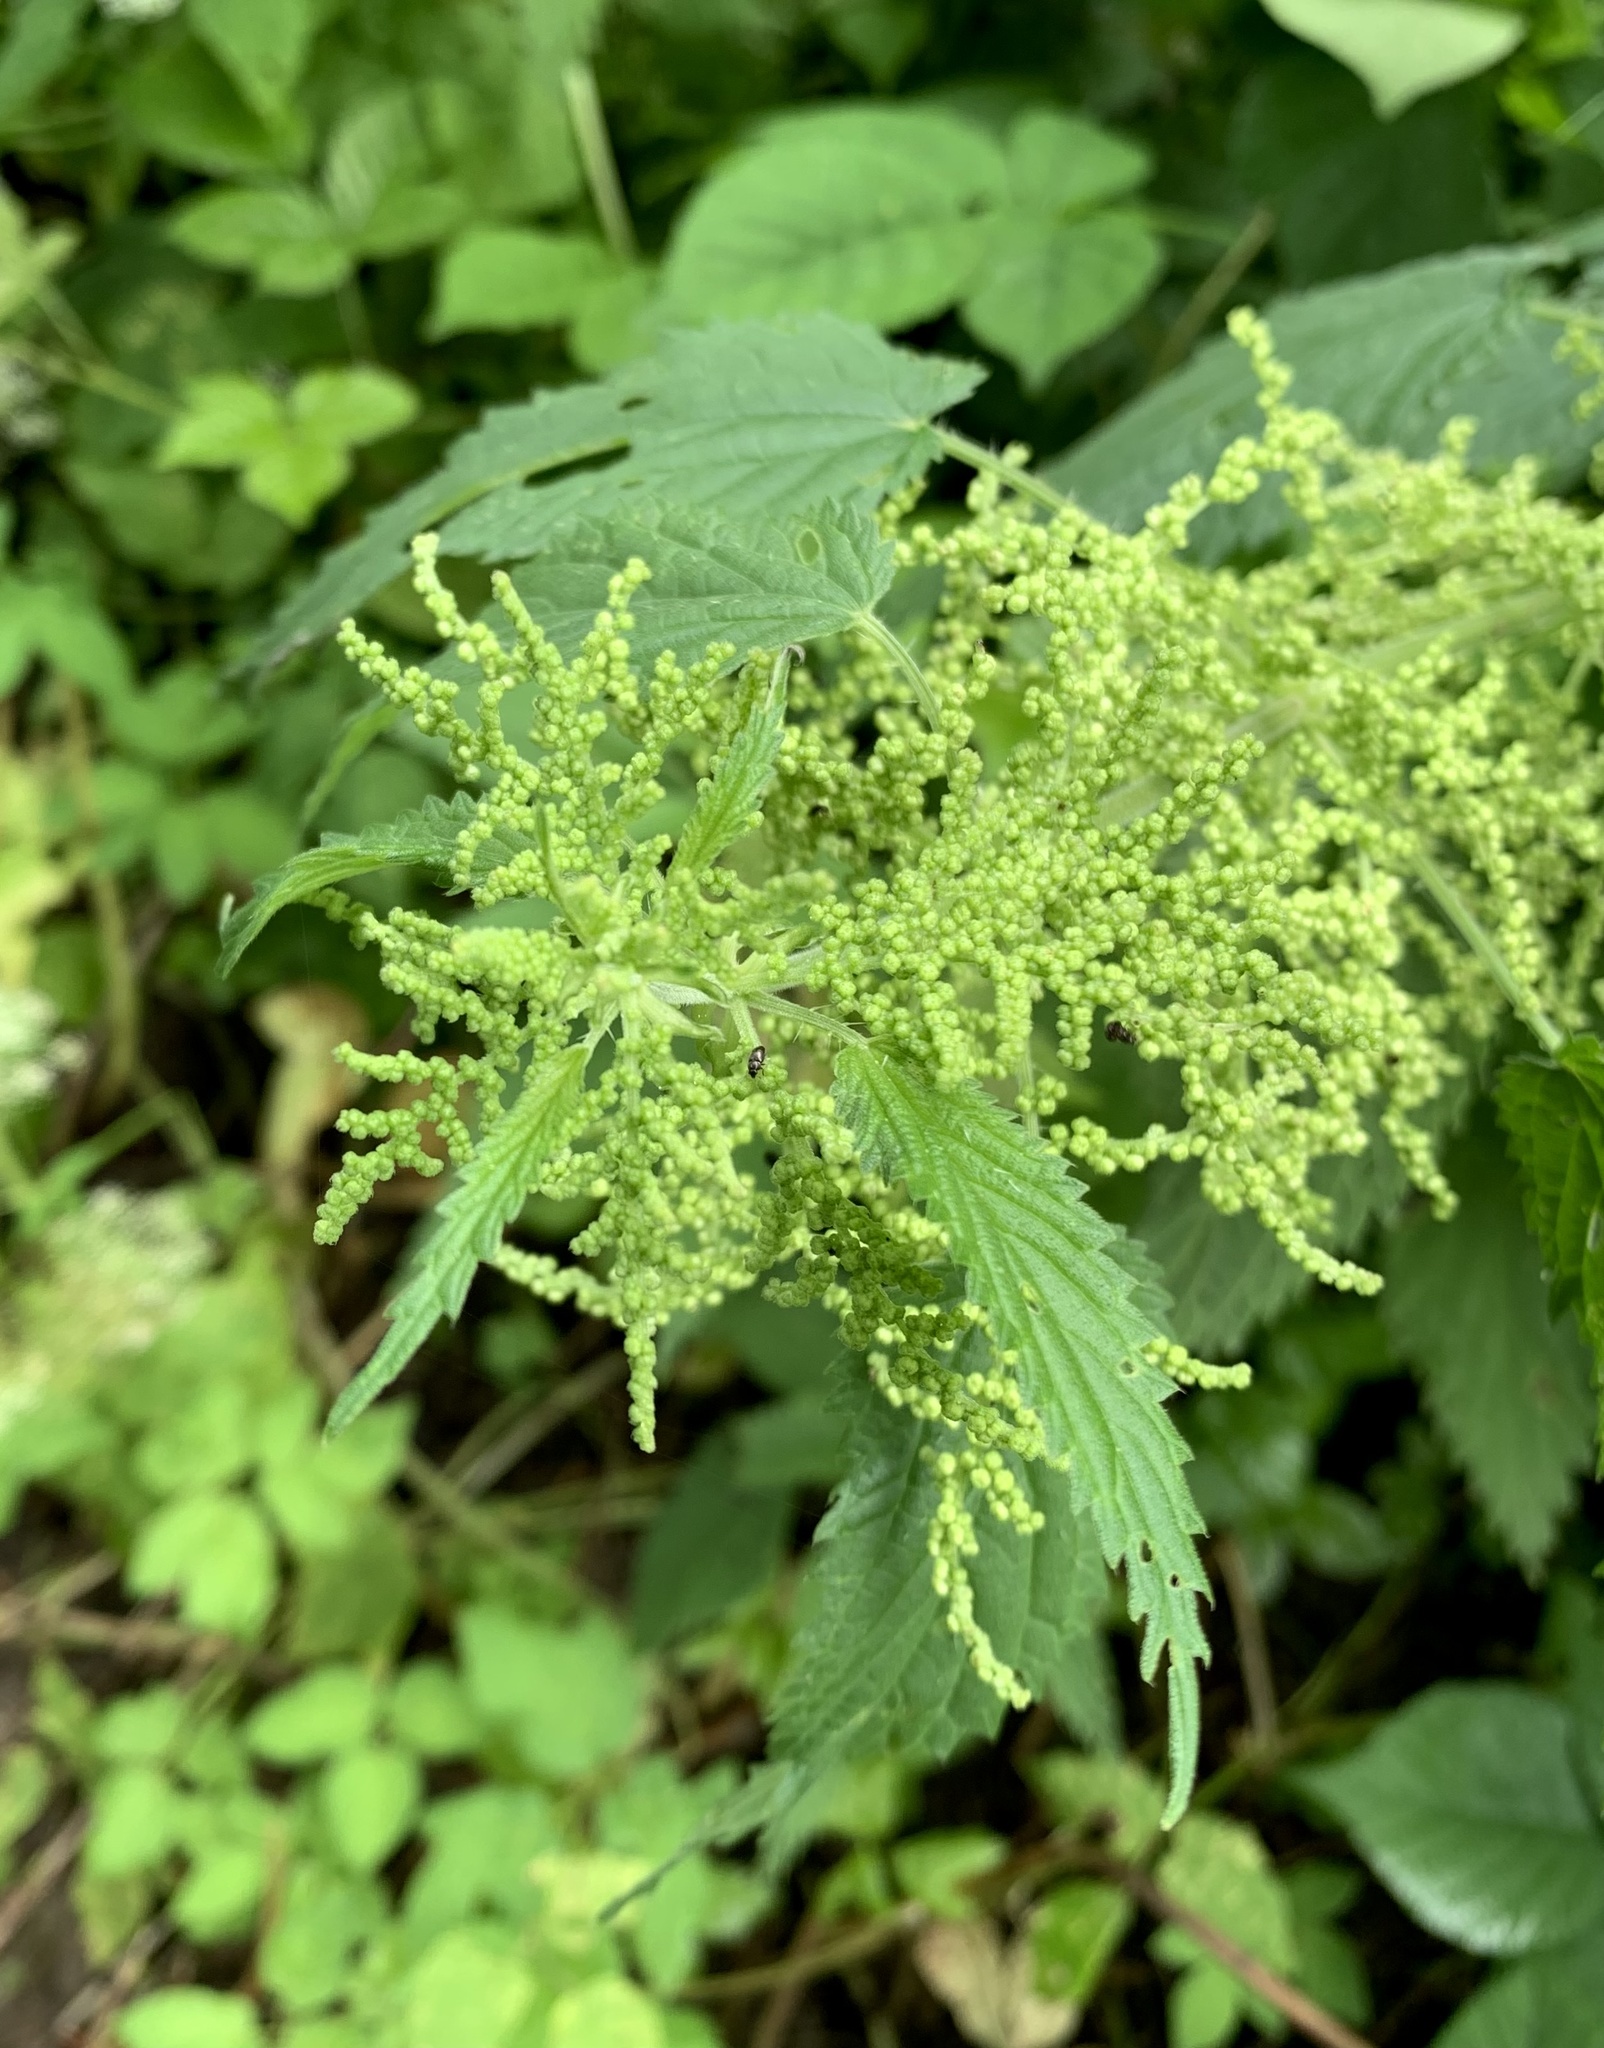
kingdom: Plantae
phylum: Tracheophyta
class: Magnoliopsida
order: Rosales
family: Urticaceae
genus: Urtica
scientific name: Urtica dioica
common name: Common nettle
